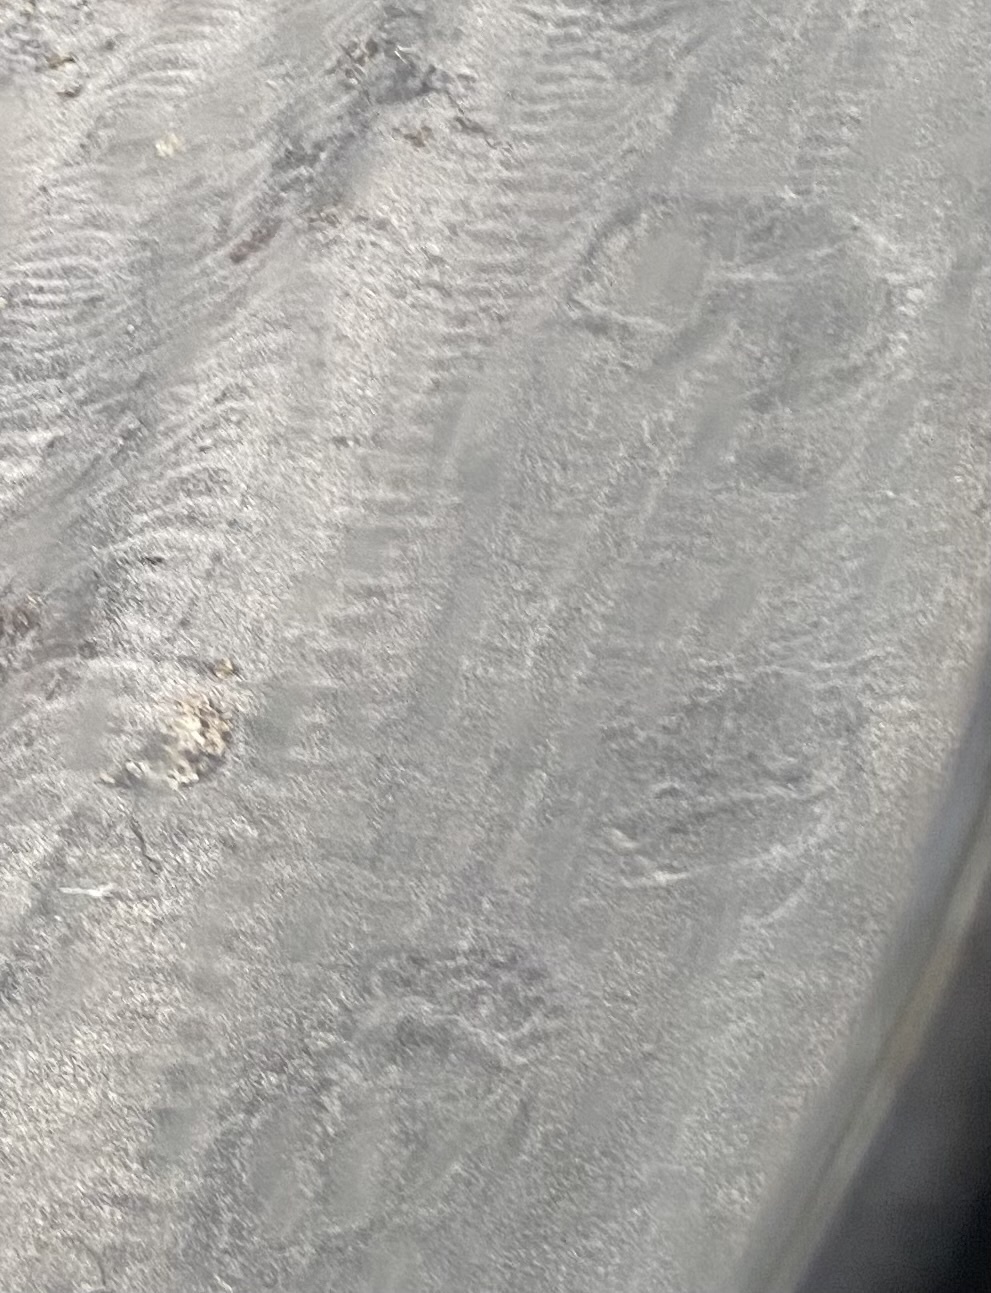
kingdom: Animalia
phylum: Chordata
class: Mammalia
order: Carnivora
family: Ursidae
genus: Ursus
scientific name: Ursus arctos
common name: Brown bear
